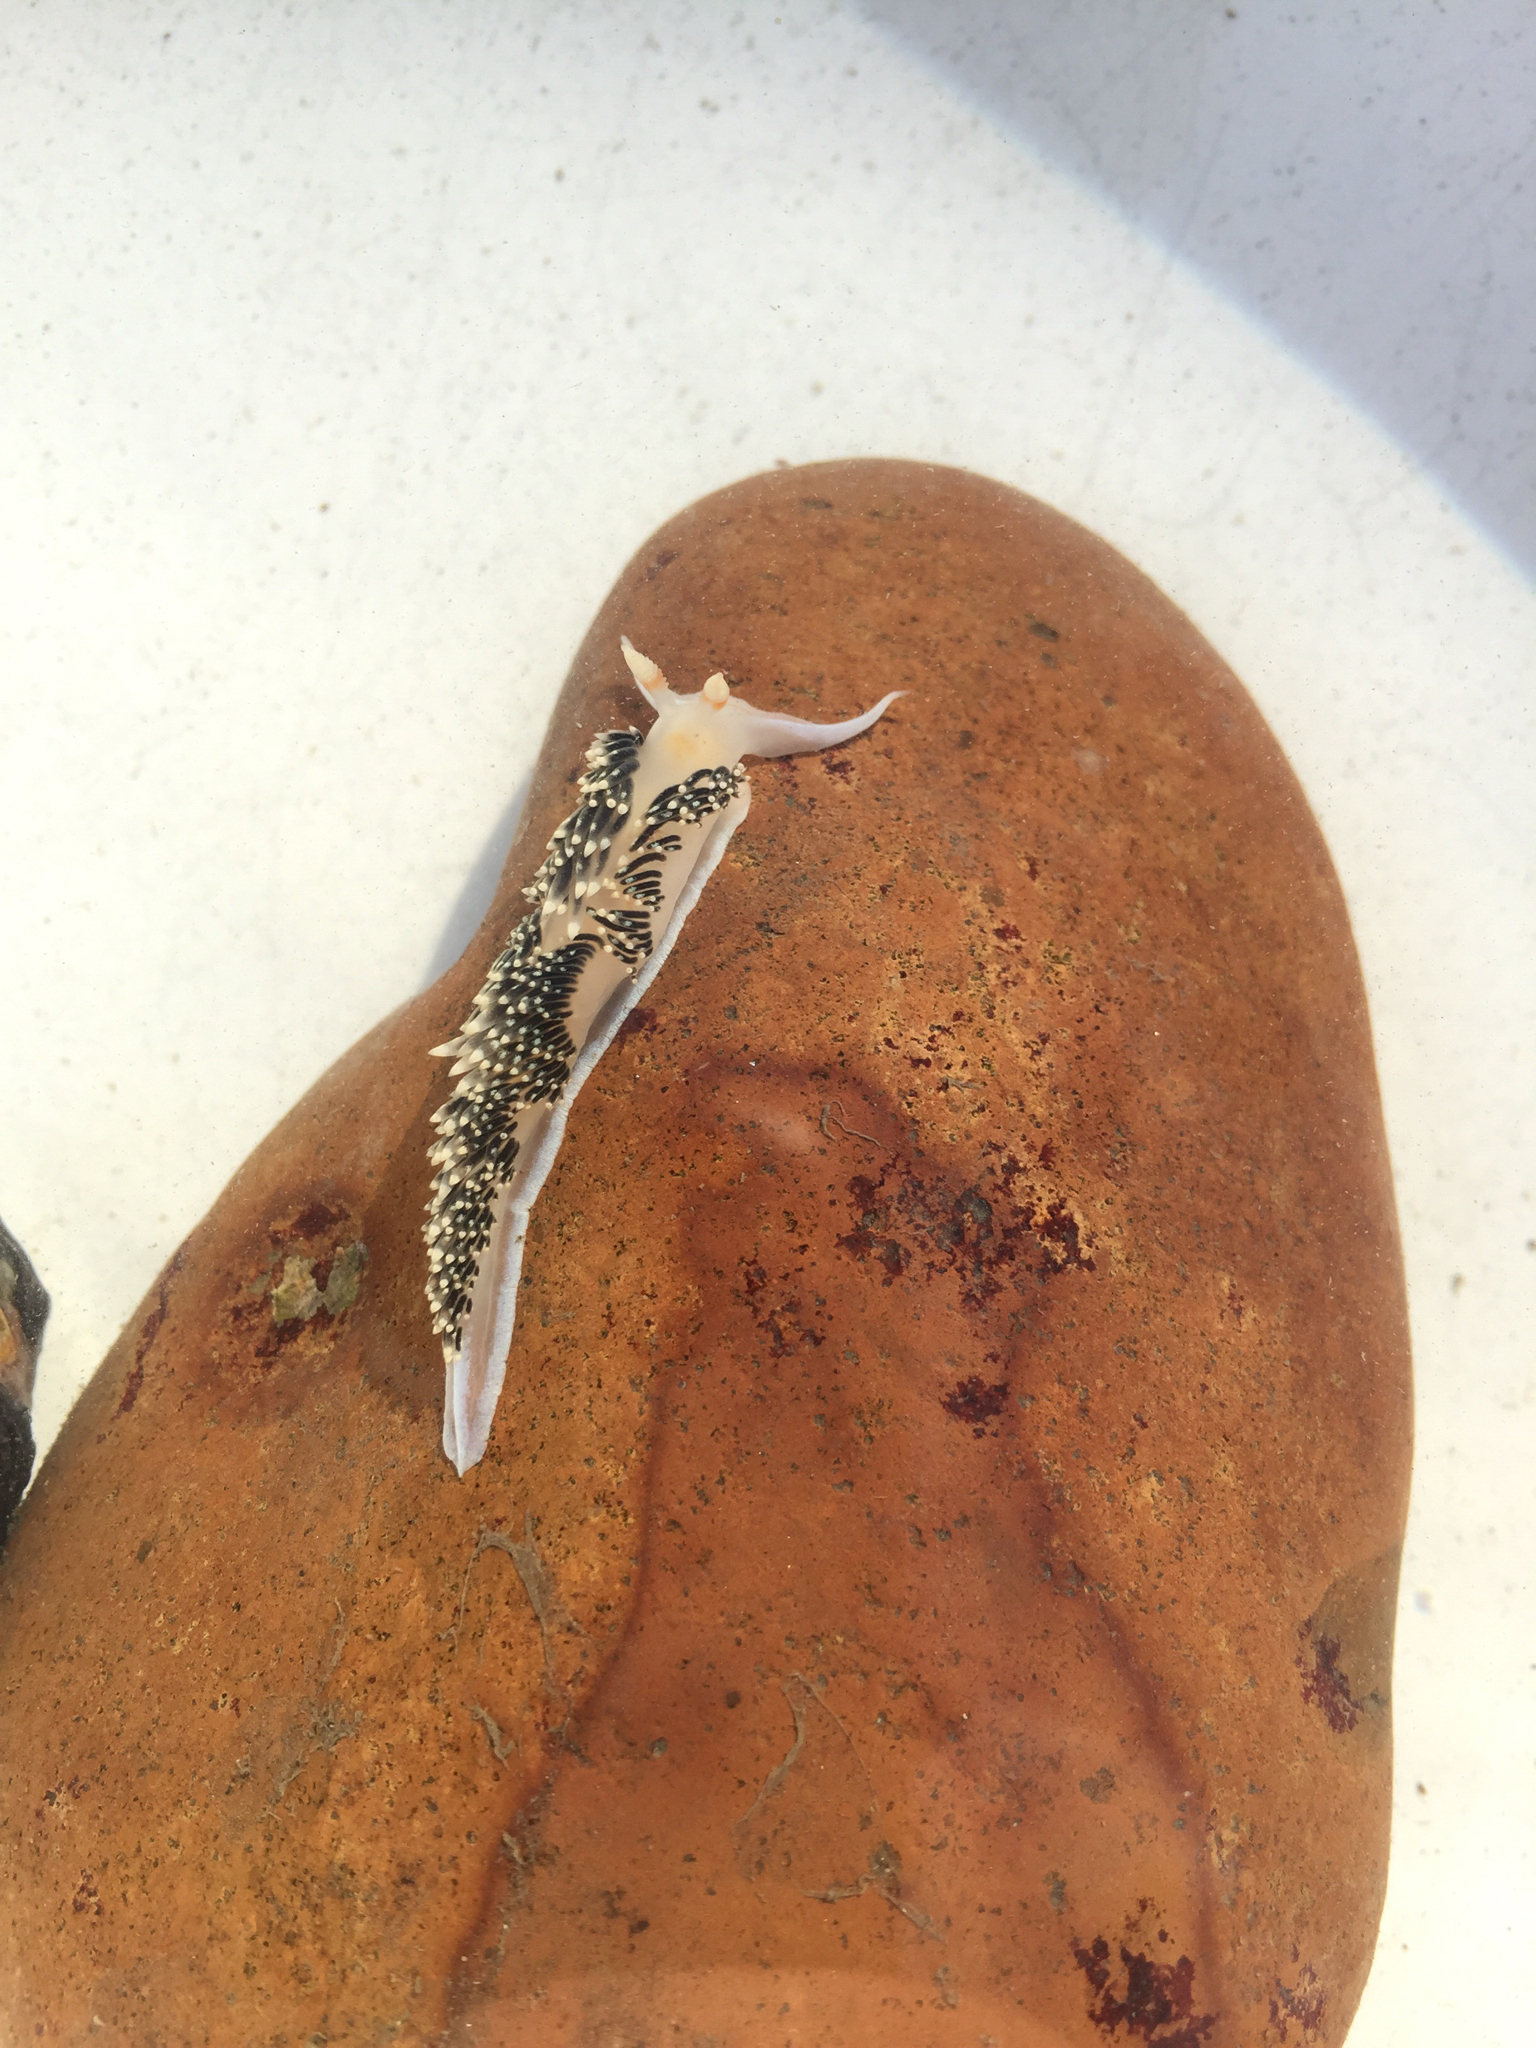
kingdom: Animalia
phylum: Mollusca
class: Gastropoda
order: Nudibranchia
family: Facelinidae
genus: Phidiana
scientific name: Phidiana hiltoni
